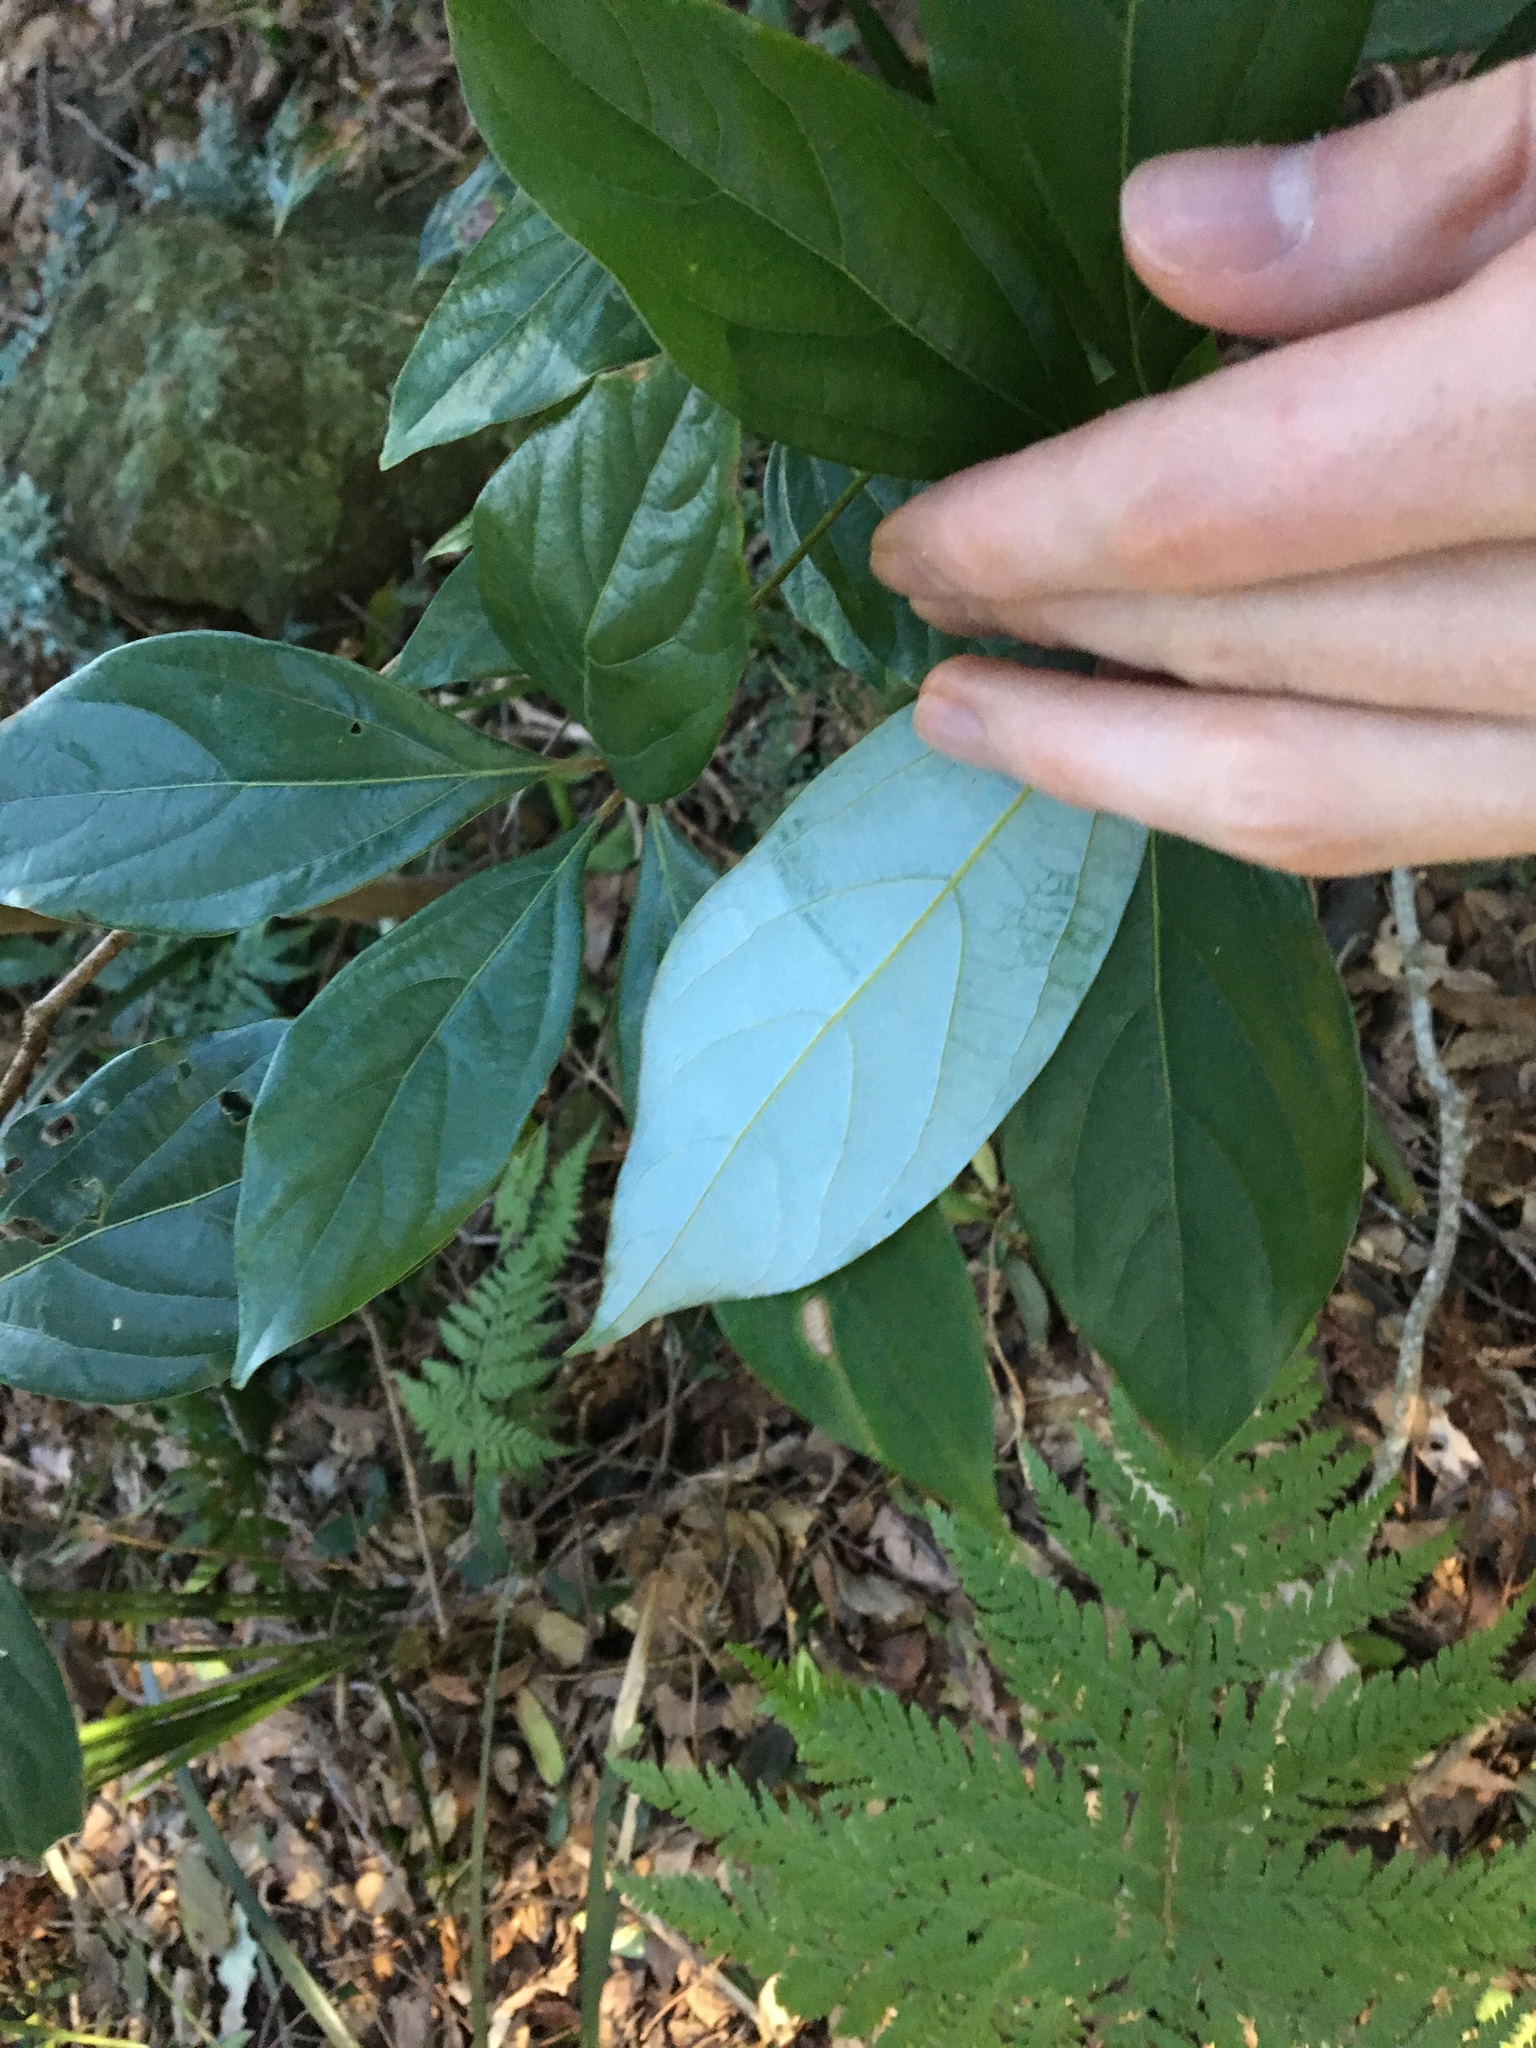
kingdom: Plantae
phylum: Tracheophyta
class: Magnoliopsida
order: Laurales
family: Lauraceae
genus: Neolitsea
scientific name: Neolitsea dealbata
